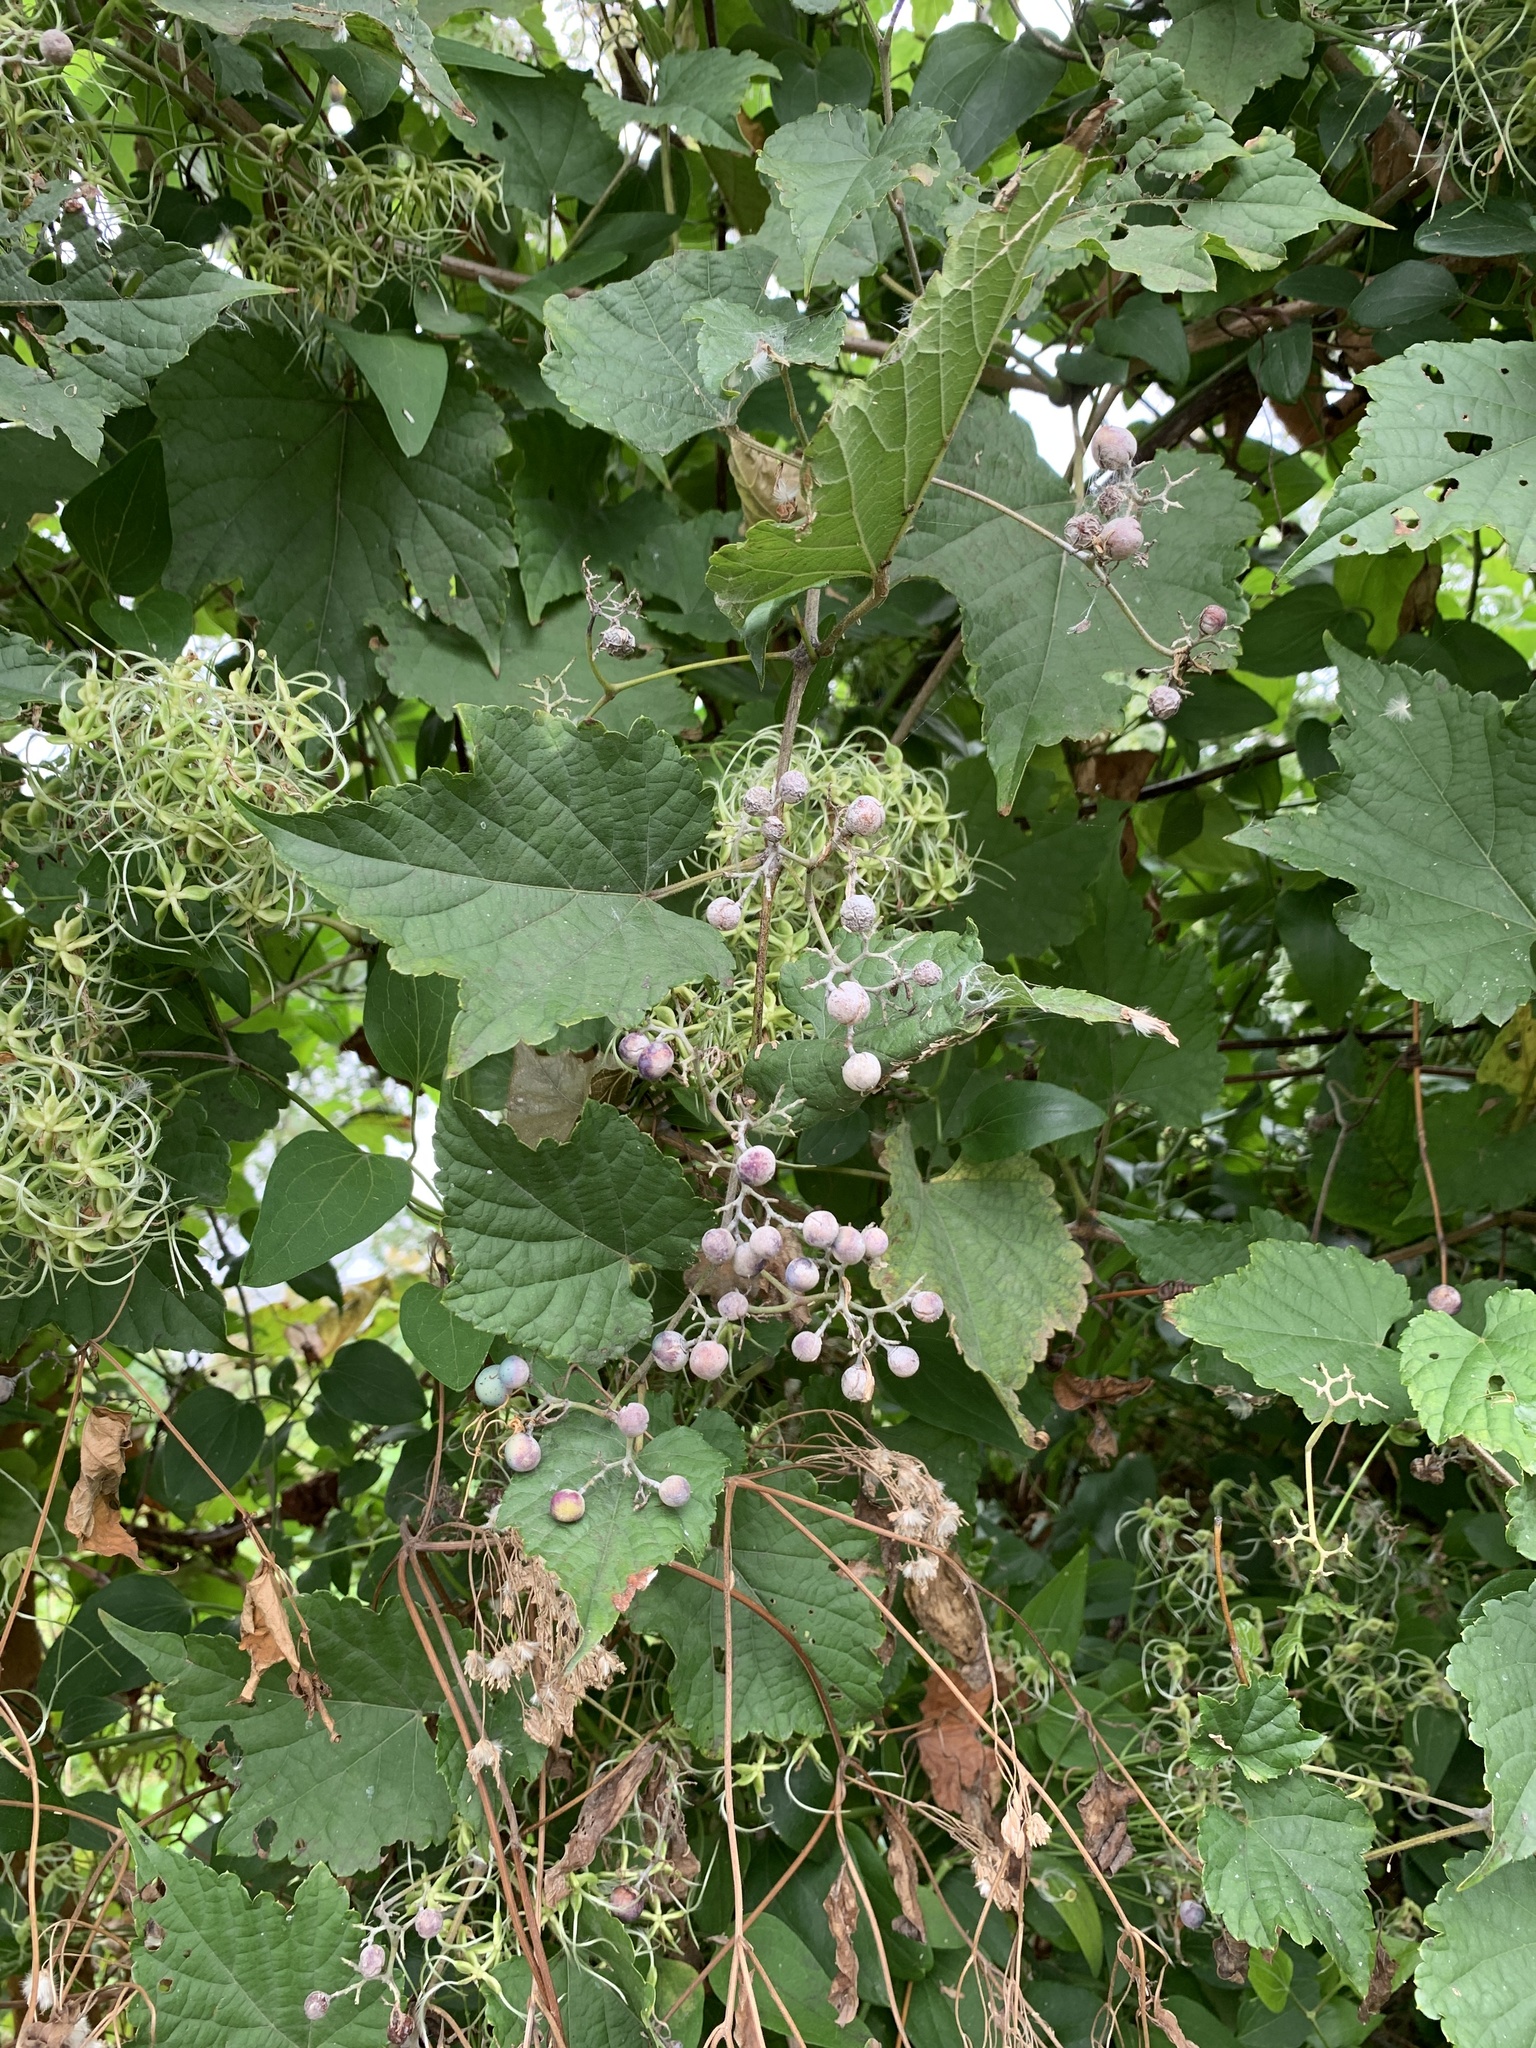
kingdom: Plantae
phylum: Tracheophyta
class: Magnoliopsida
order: Vitales
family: Vitaceae
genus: Ampelopsis
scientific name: Ampelopsis glandulosa
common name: Amur peppervine
